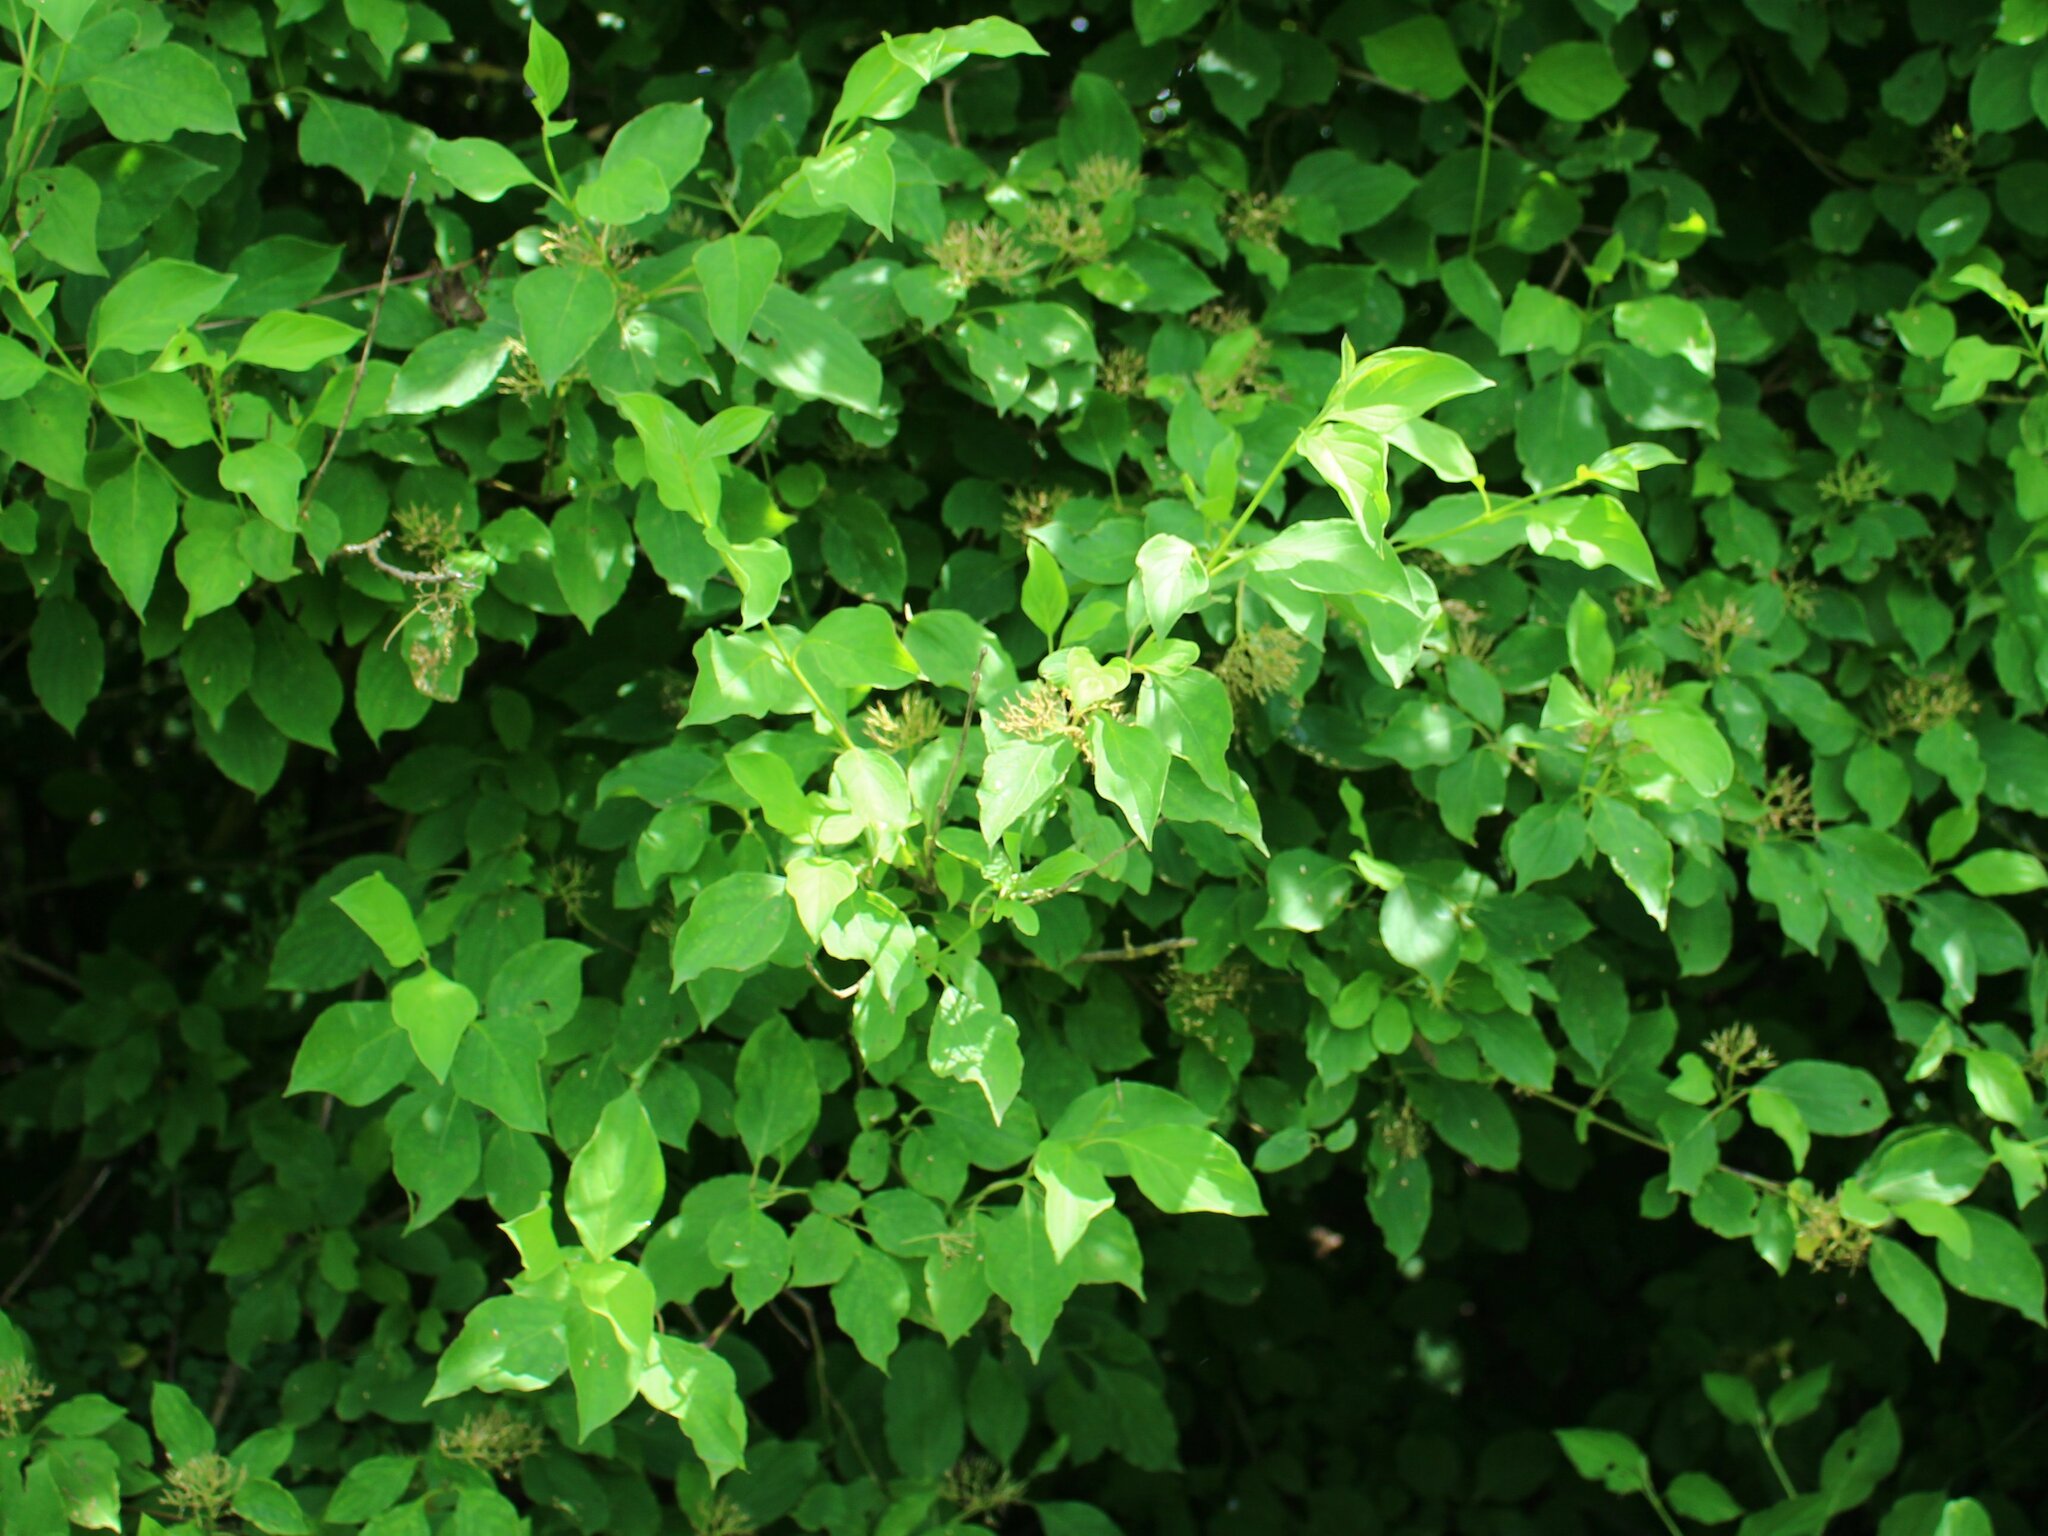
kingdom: Plantae
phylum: Tracheophyta
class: Magnoliopsida
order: Cornales
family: Cornaceae
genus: Cornus
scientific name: Cornus sanguinea
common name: Dogwood
